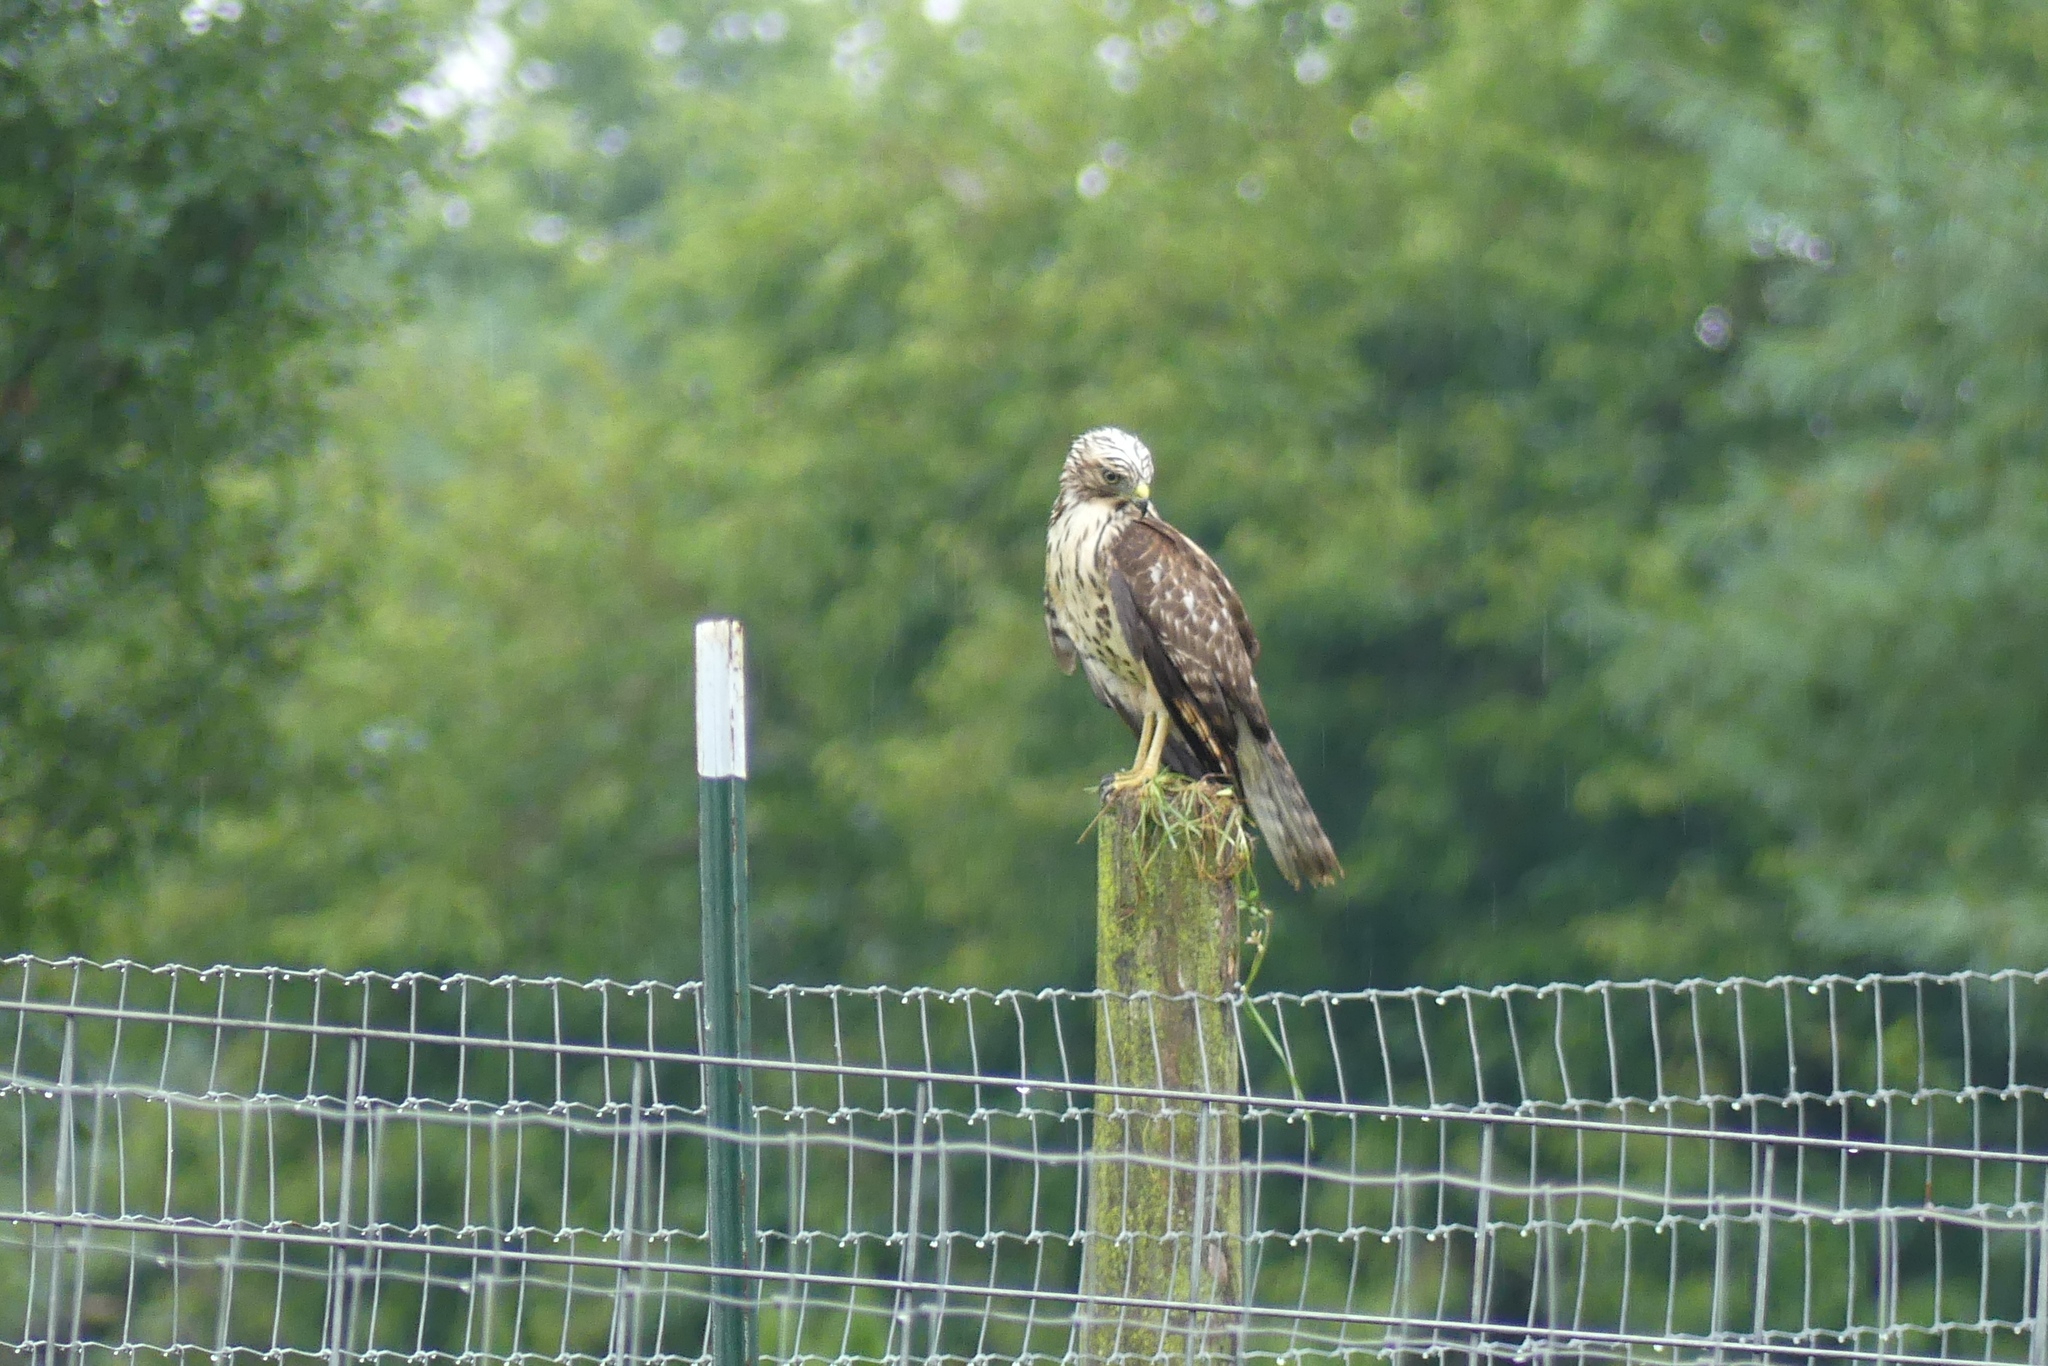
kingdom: Animalia
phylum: Chordata
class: Aves
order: Accipitriformes
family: Accipitridae
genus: Buteo
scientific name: Buteo lineatus
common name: Red-shouldered hawk
